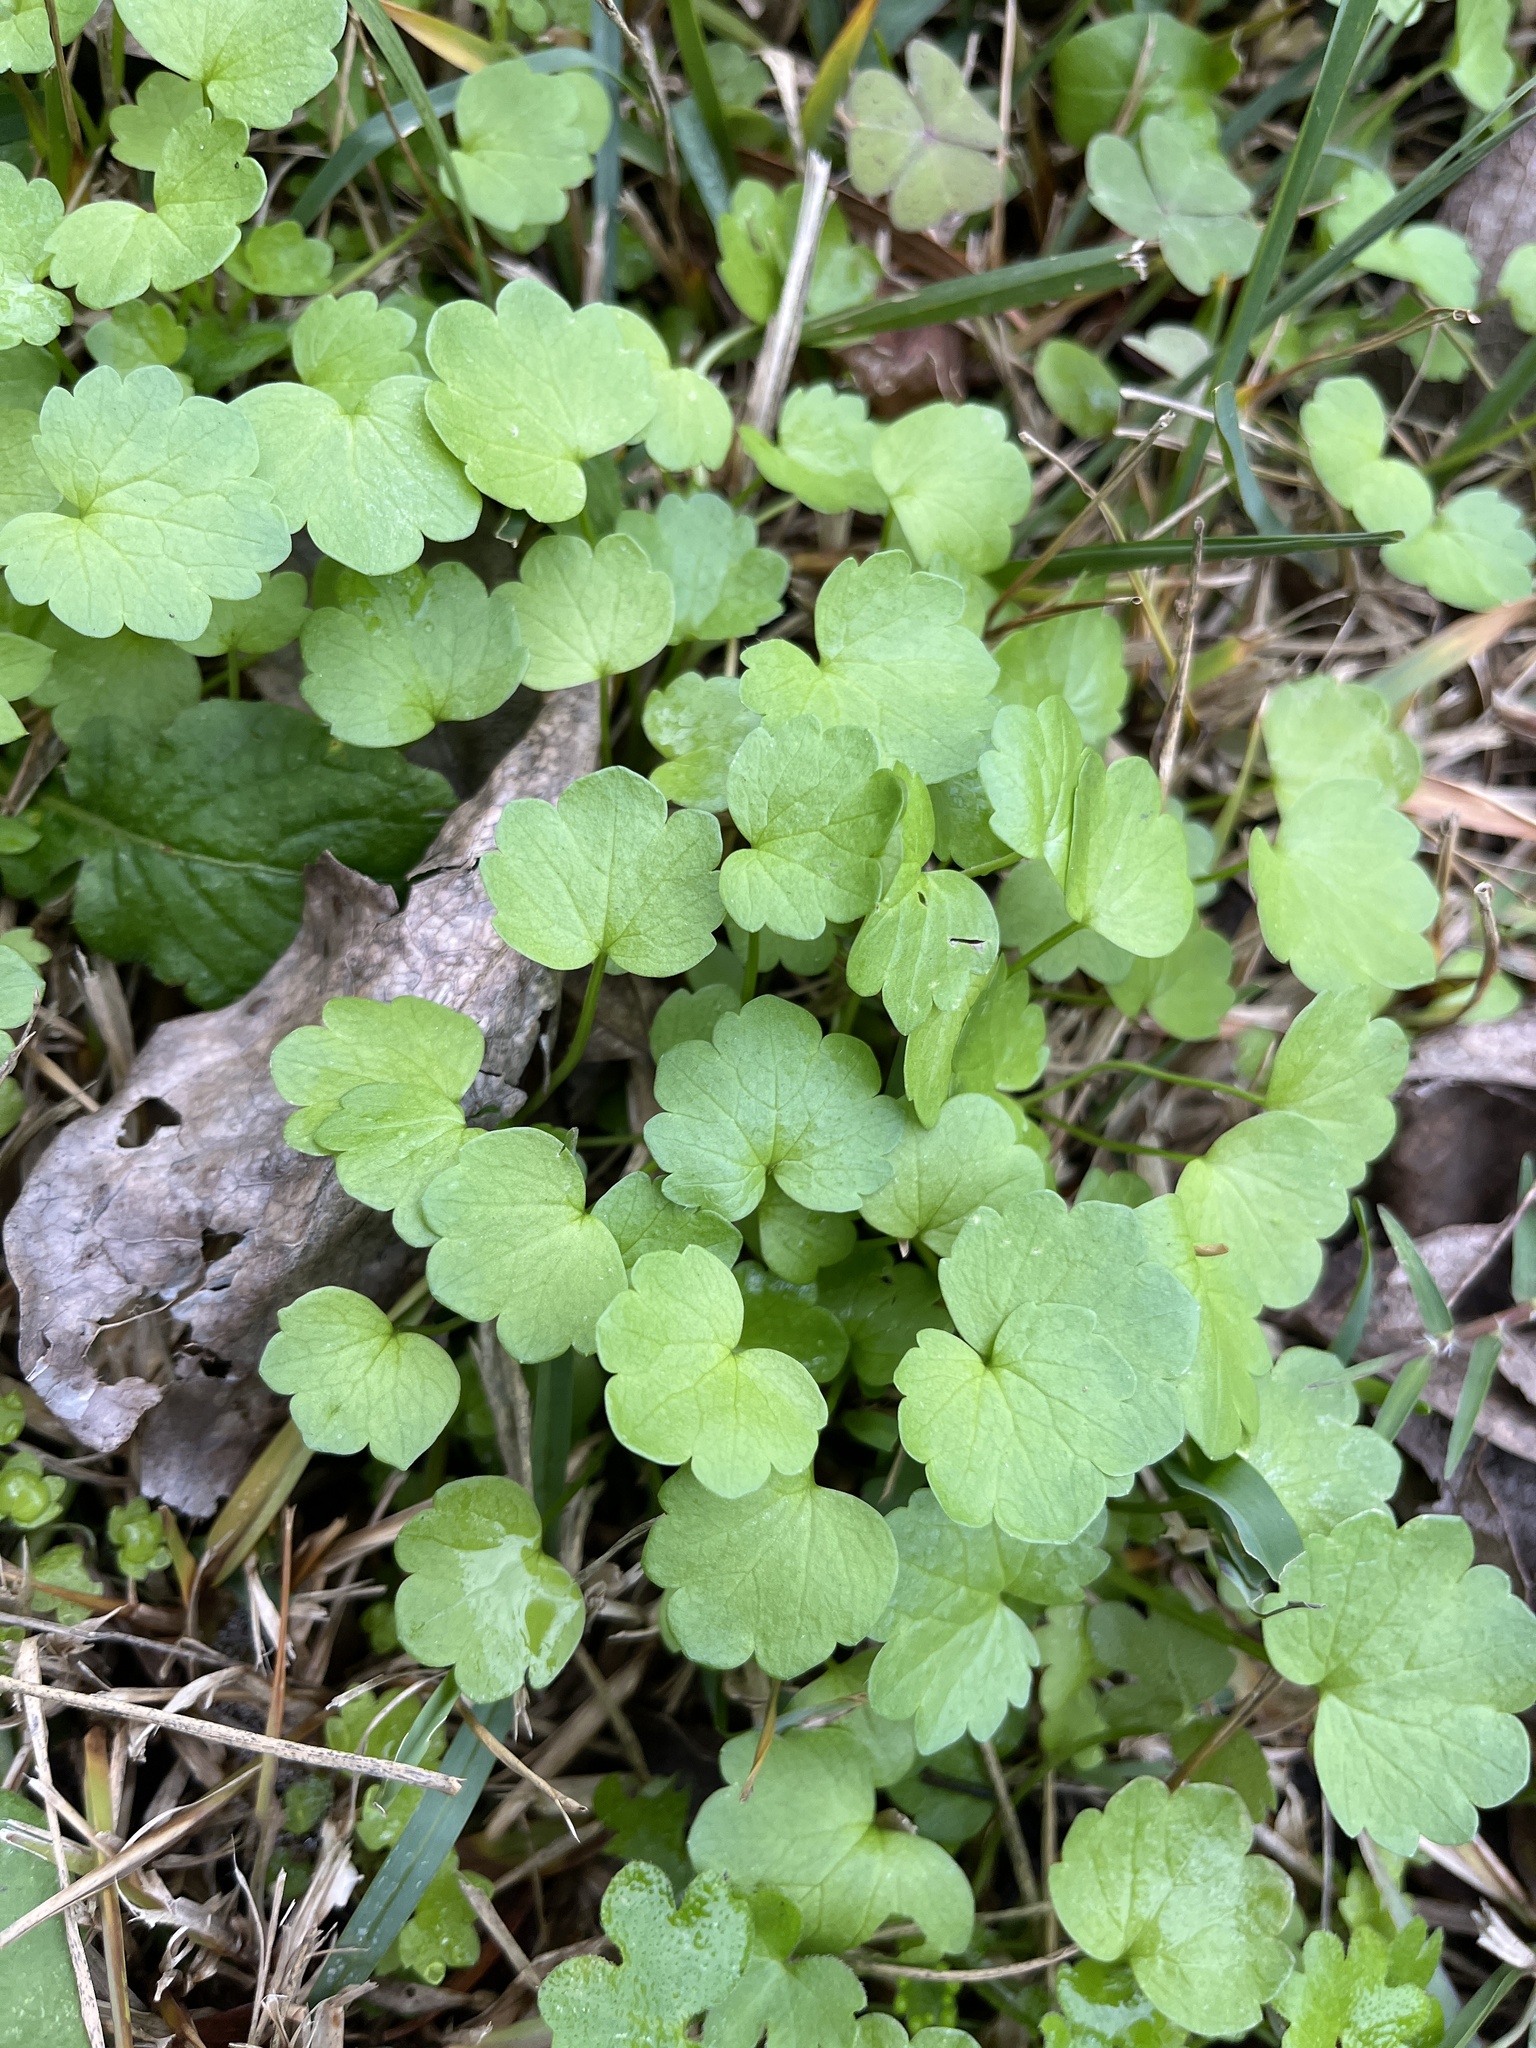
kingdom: Plantae
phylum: Tracheophyta
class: Magnoliopsida
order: Lamiales
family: Lamiaceae
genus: Glechoma
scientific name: Glechoma hederacea
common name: Ground ivy
